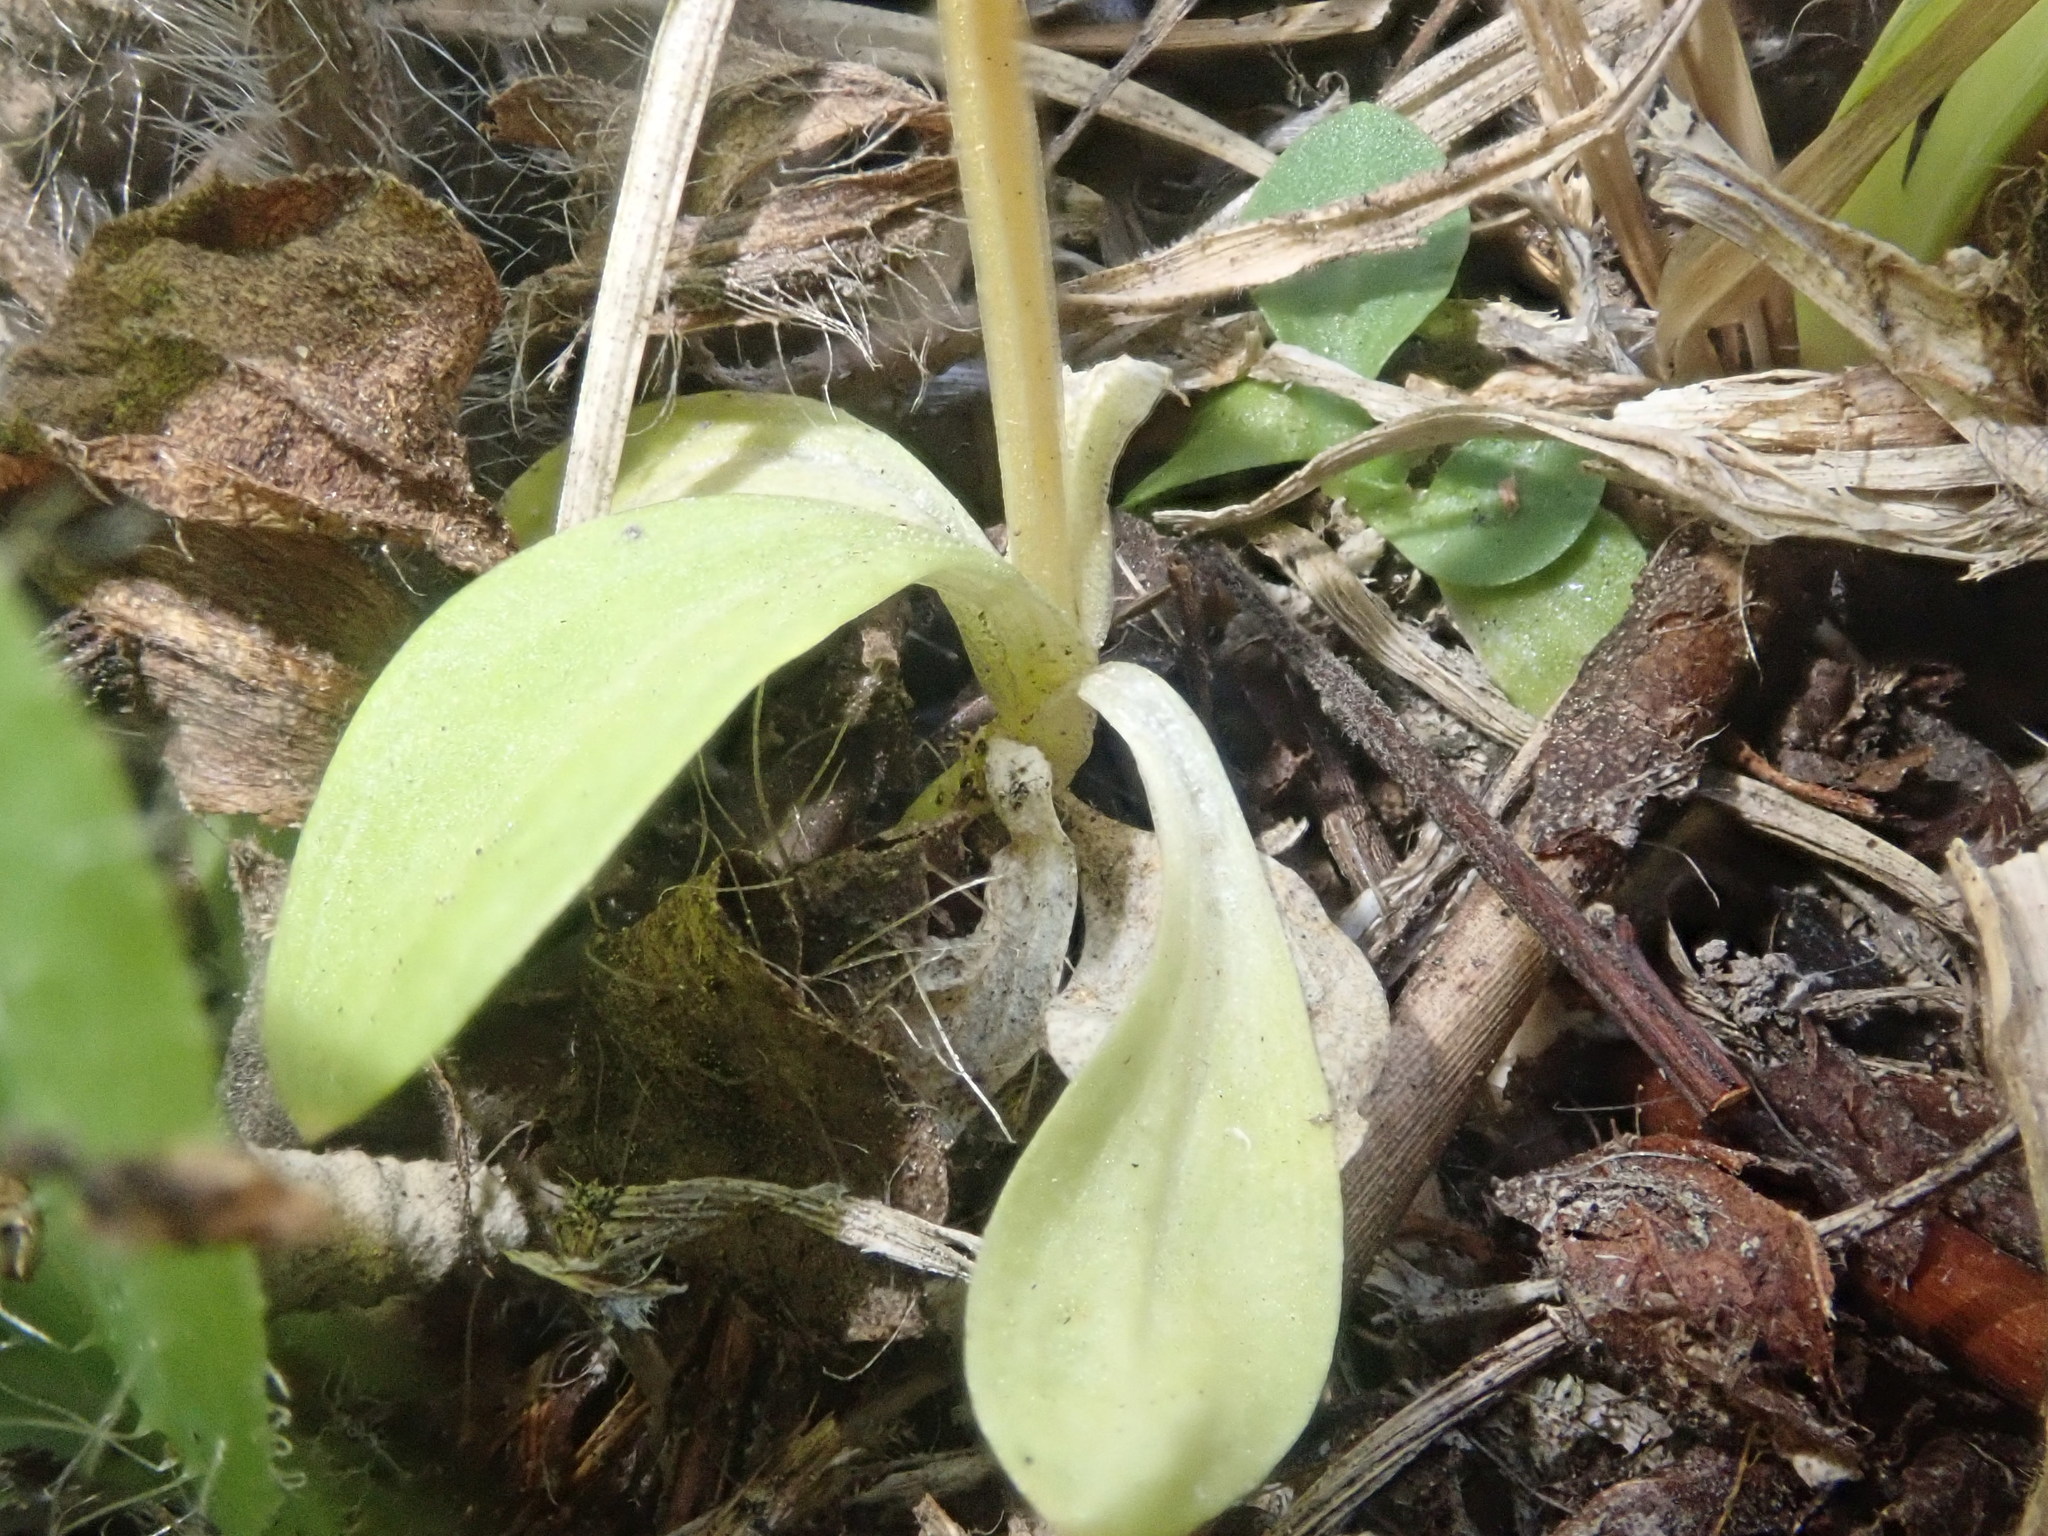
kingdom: Plantae
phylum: Tracheophyta
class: Magnoliopsida
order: Gentianales
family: Gentianaceae
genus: Centaurium
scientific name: Centaurium erythraea
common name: Common centaury
